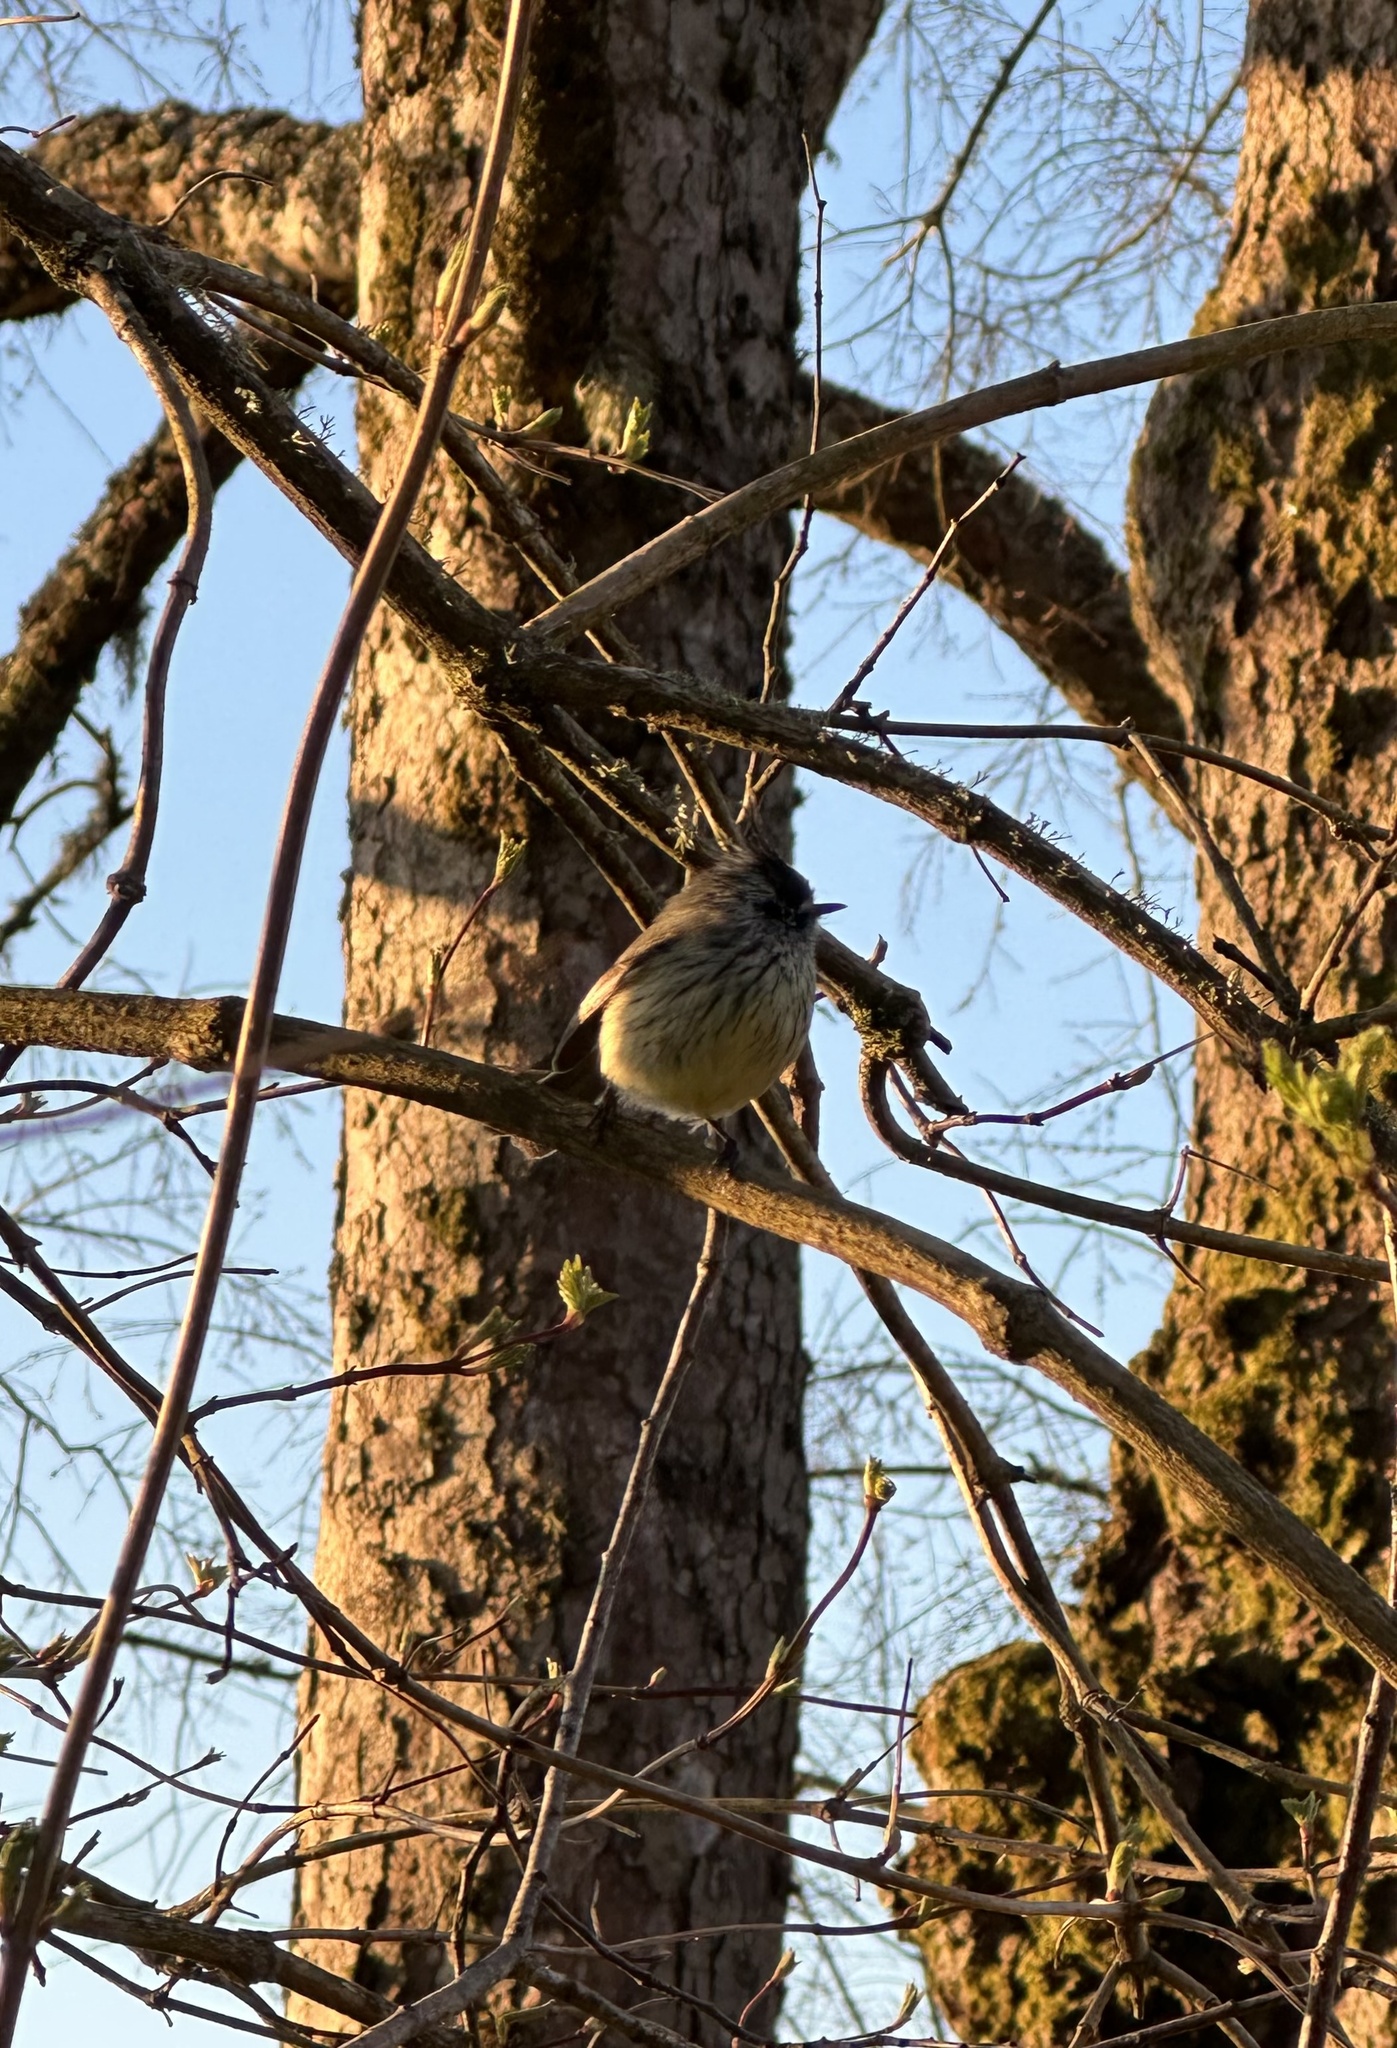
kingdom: Animalia
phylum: Chordata
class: Aves
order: Passeriformes
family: Tyrannidae
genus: Anairetes
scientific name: Anairetes parulus
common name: Tufted tit-tyrant
